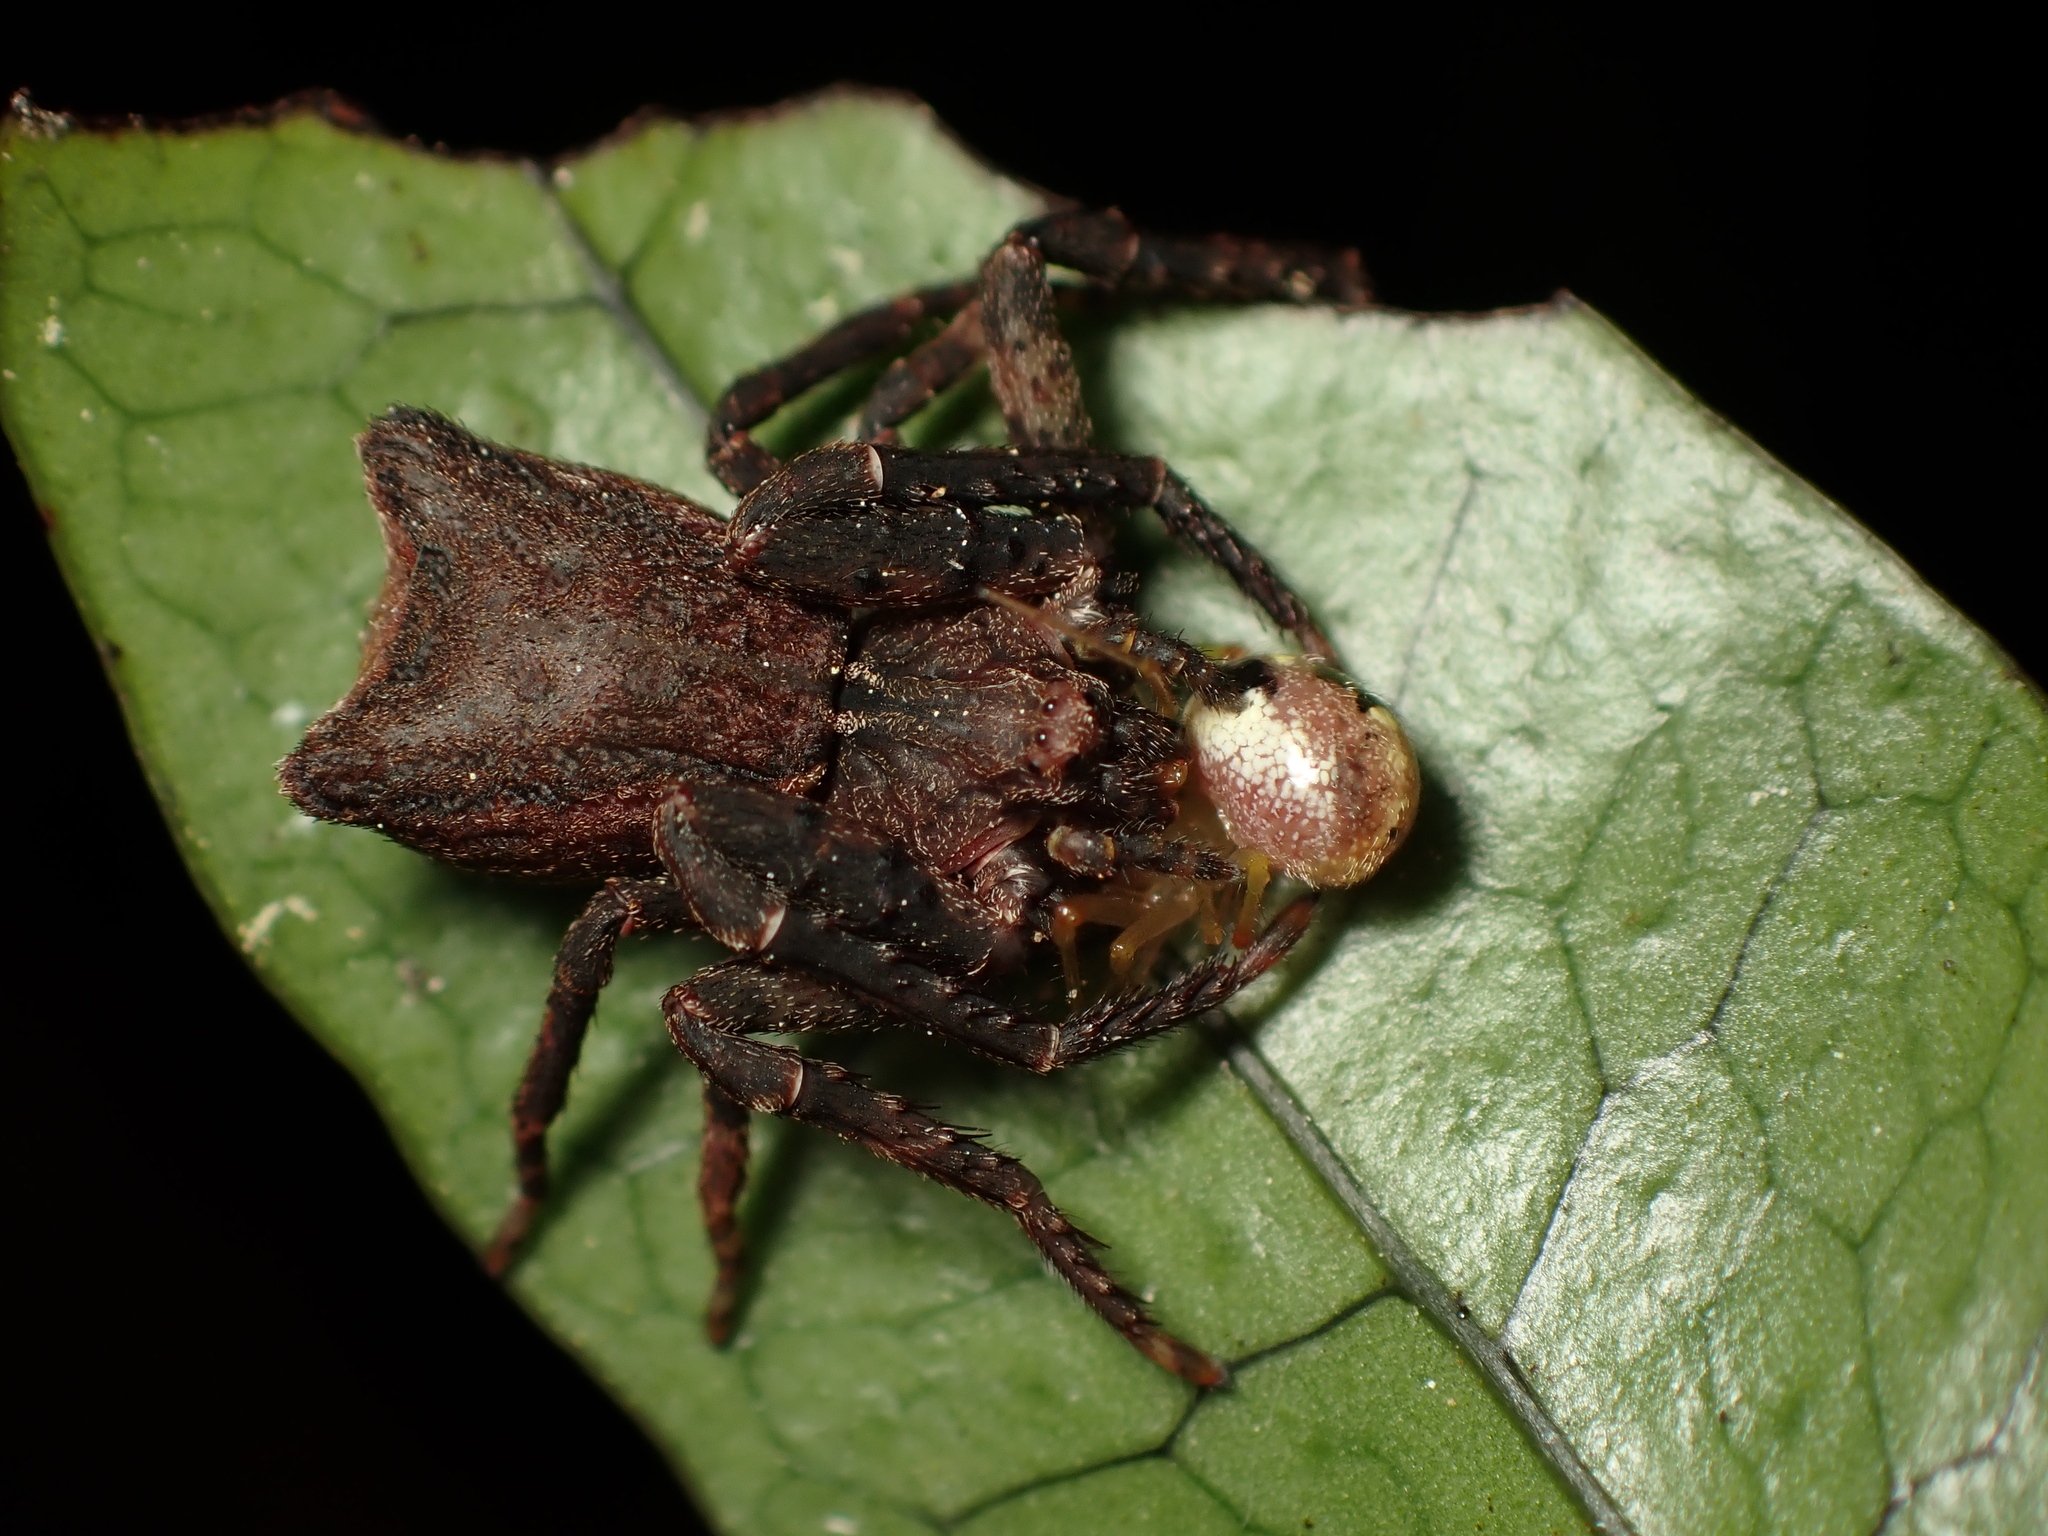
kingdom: Animalia
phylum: Arthropoda
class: Arachnida
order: Araneae
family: Thomisidae
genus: Sidymella
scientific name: Sidymella angularis
